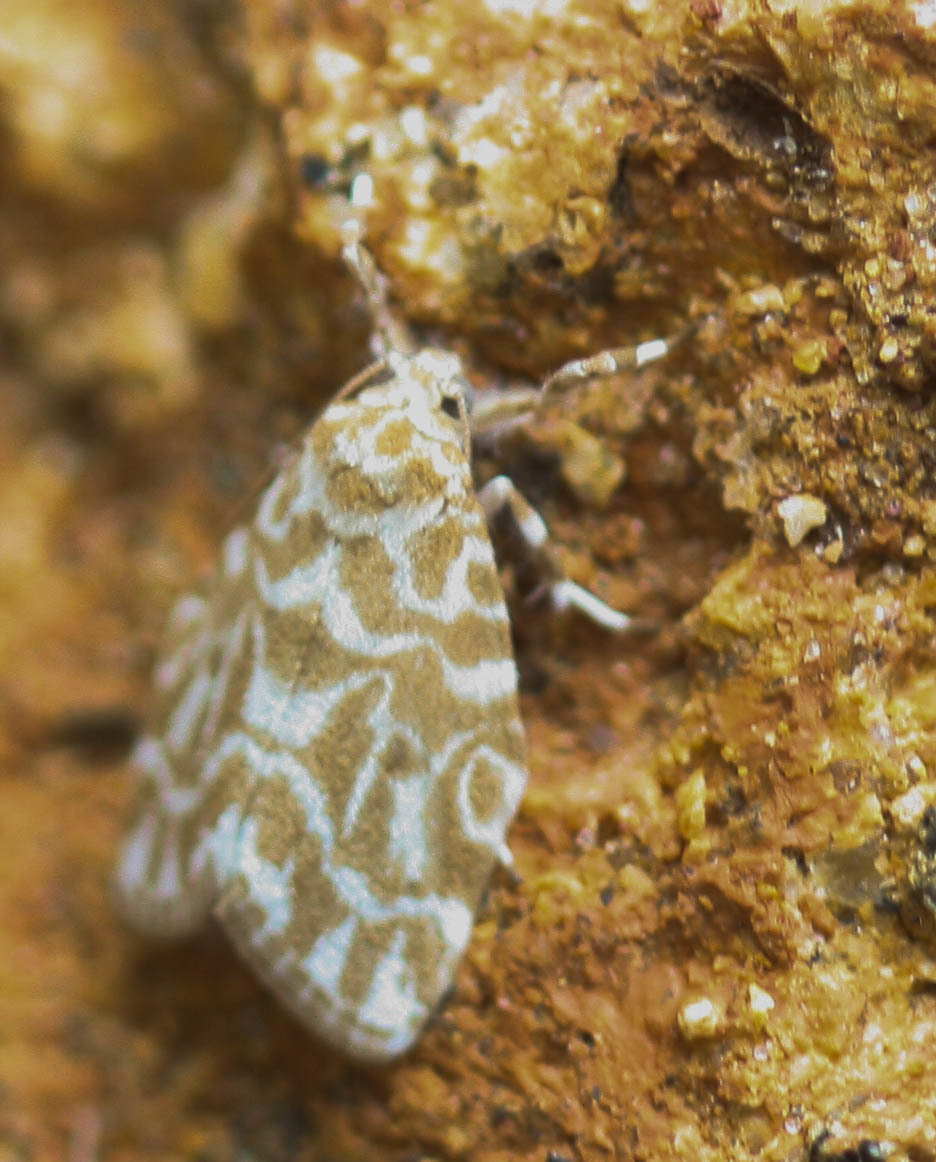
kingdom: Animalia
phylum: Arthropoda
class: Insecta
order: Lepidoptera
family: Erebidae
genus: Cabarda
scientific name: Cabarda sequens
